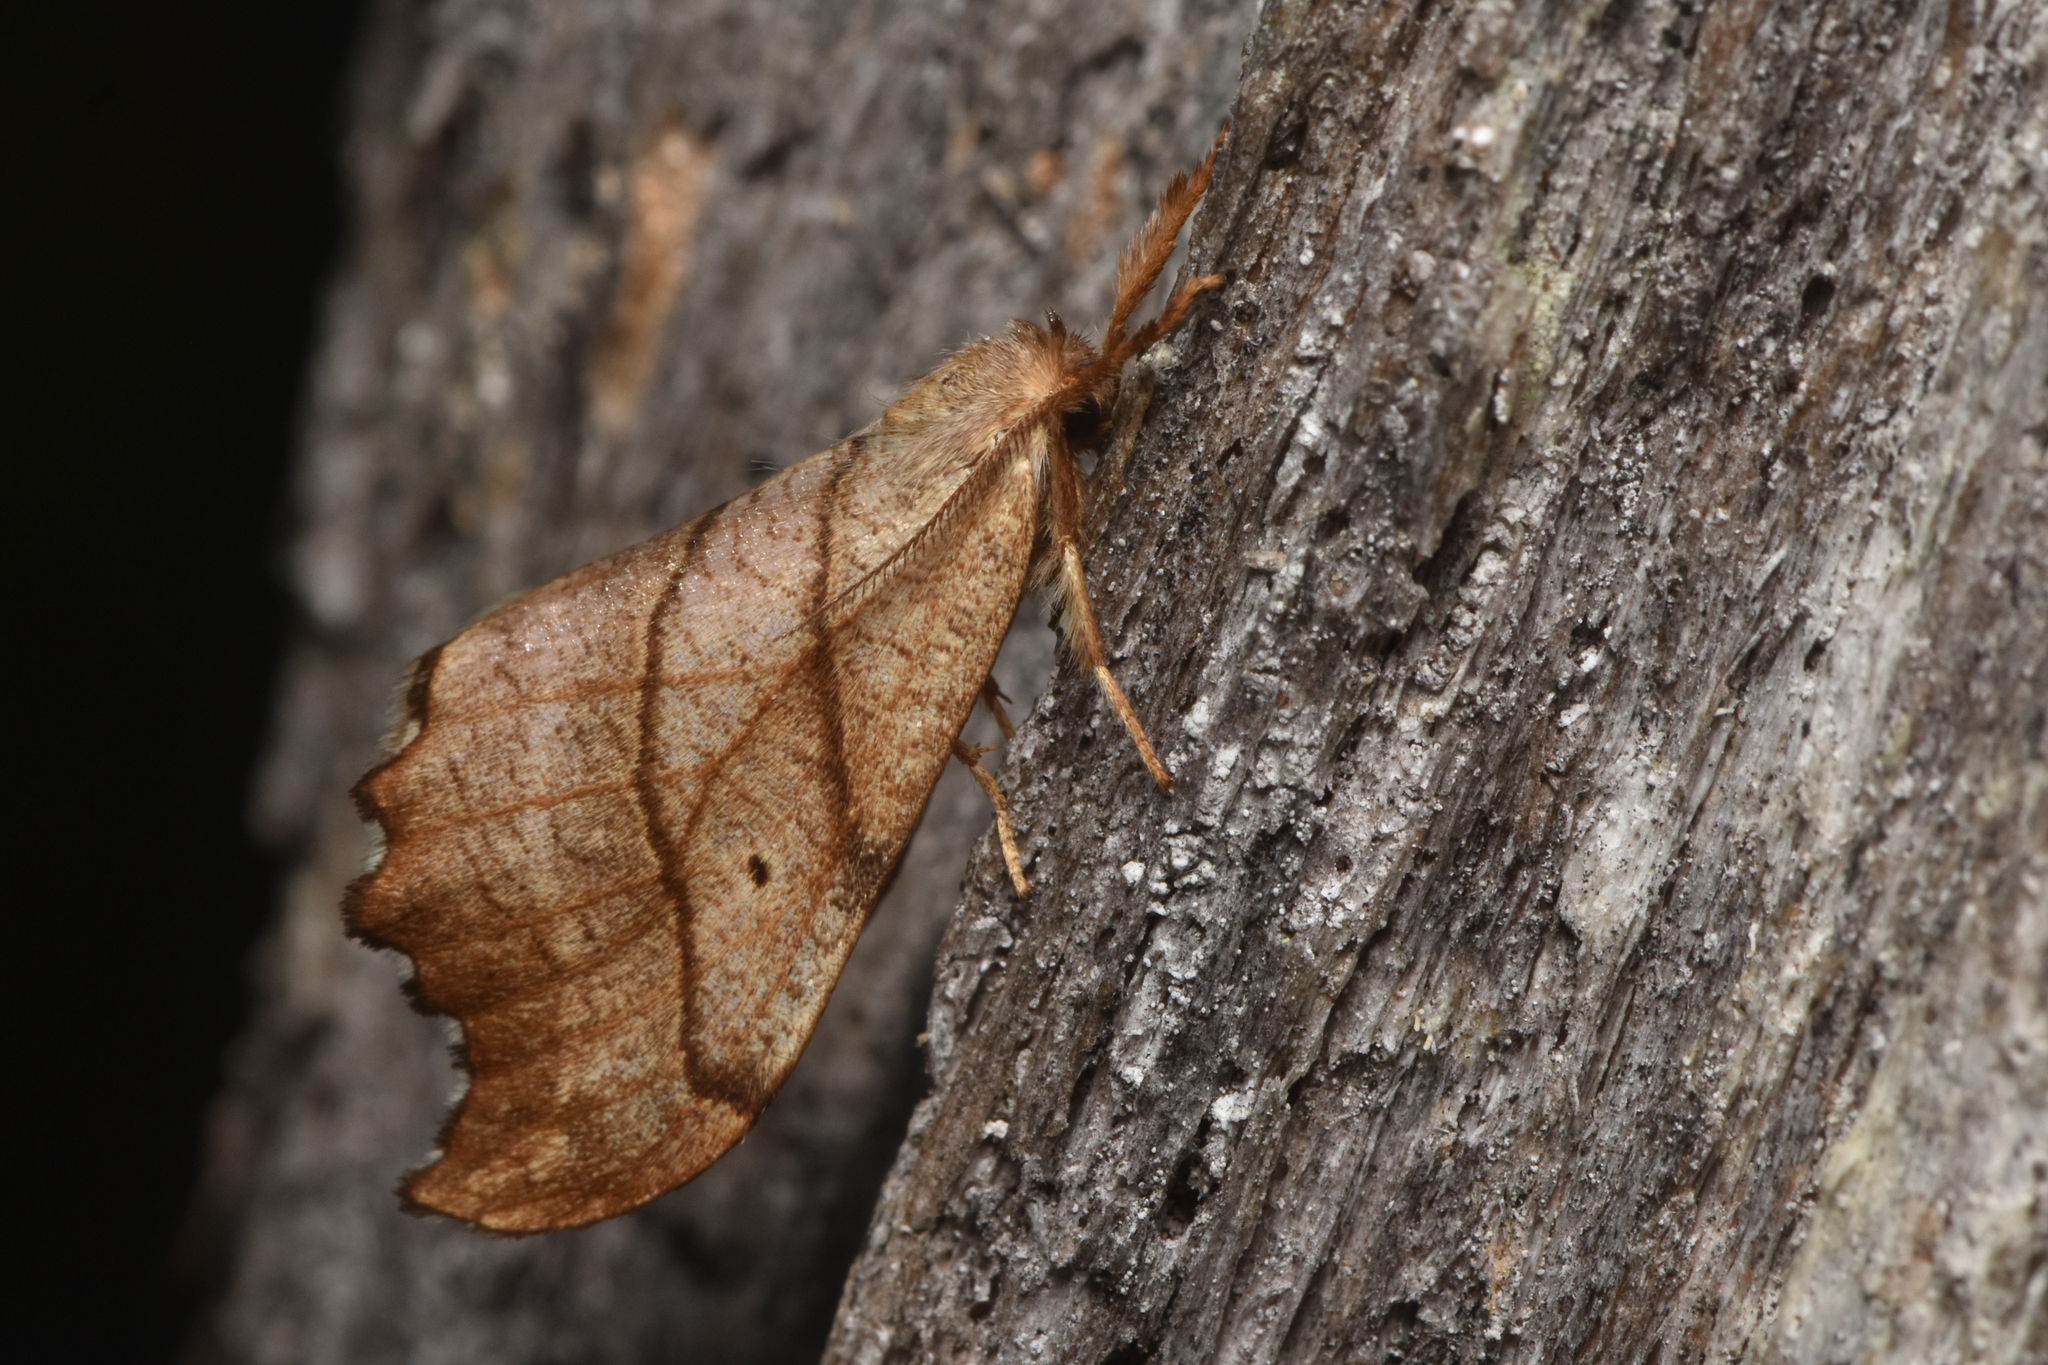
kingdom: Animalia
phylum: Arthropoda
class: Insecta
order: Lepidoptera
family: Drepanidae
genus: Falcaria
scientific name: Falcaria bilineata
